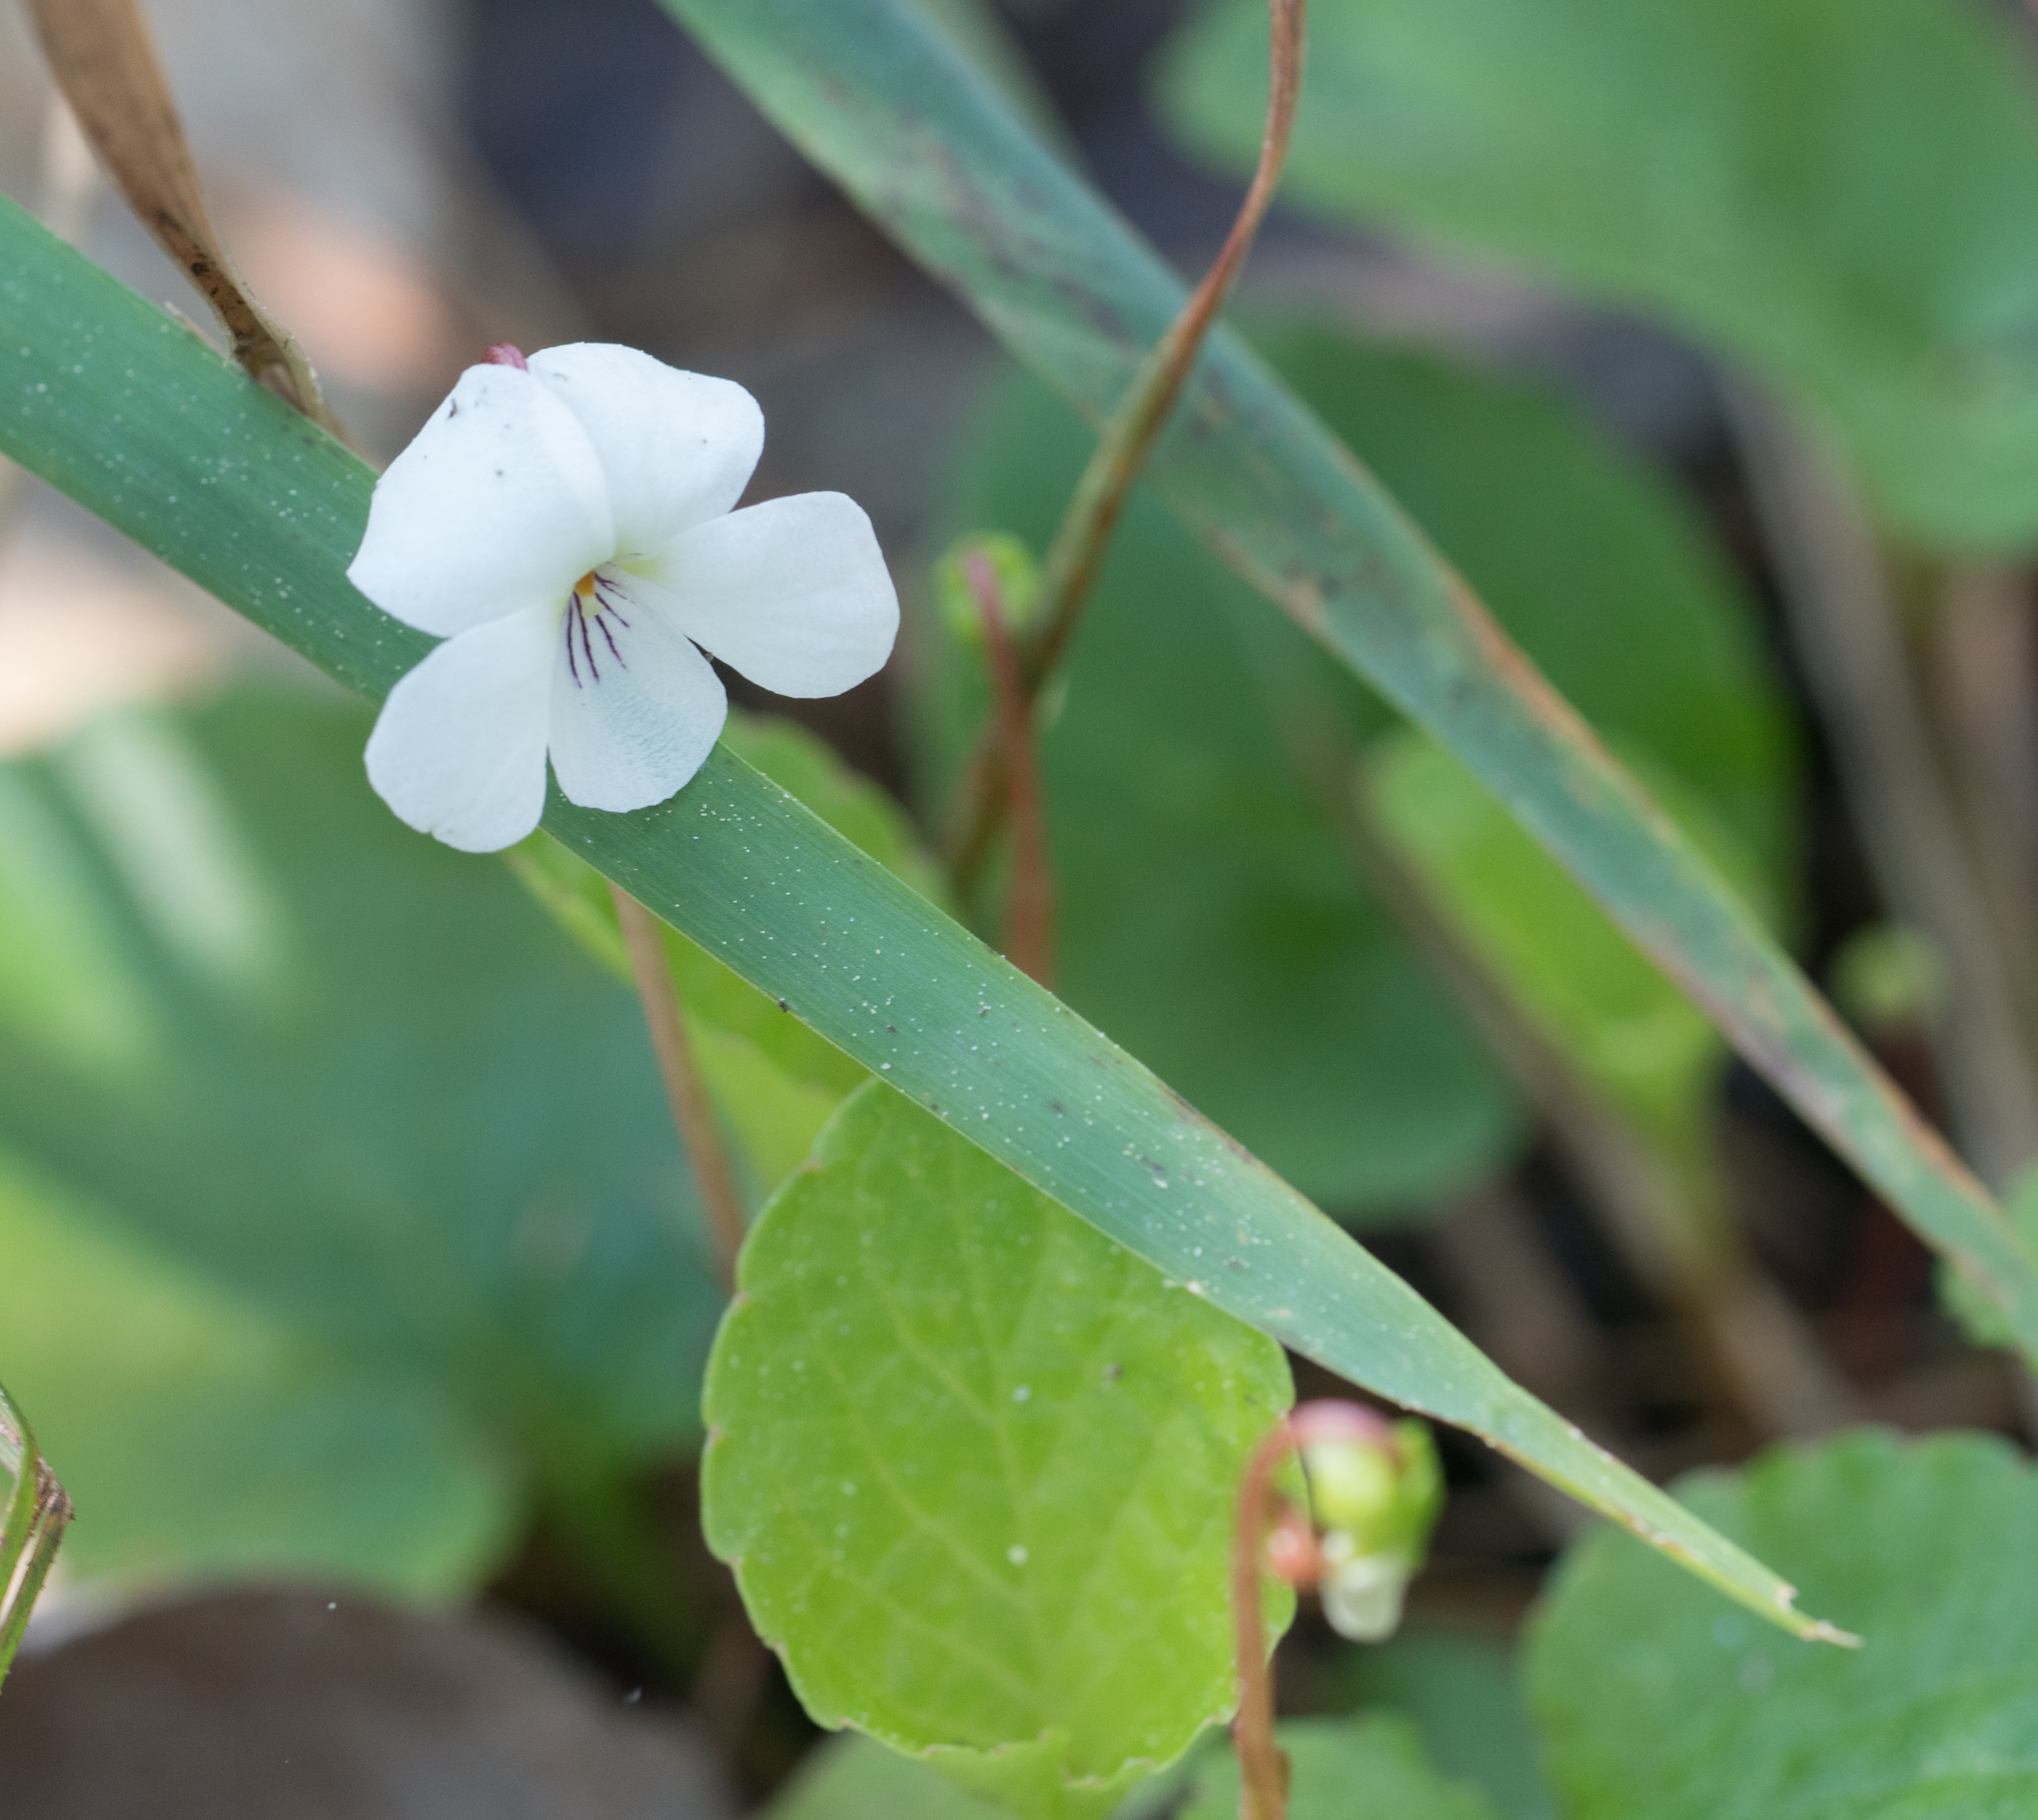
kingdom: Plantae
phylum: Tracheophyta
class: Magnoliopsida
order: Malpighiales
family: Violaceae
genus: Viola
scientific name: Viola primulifolia
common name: Primrose-leaf violet
